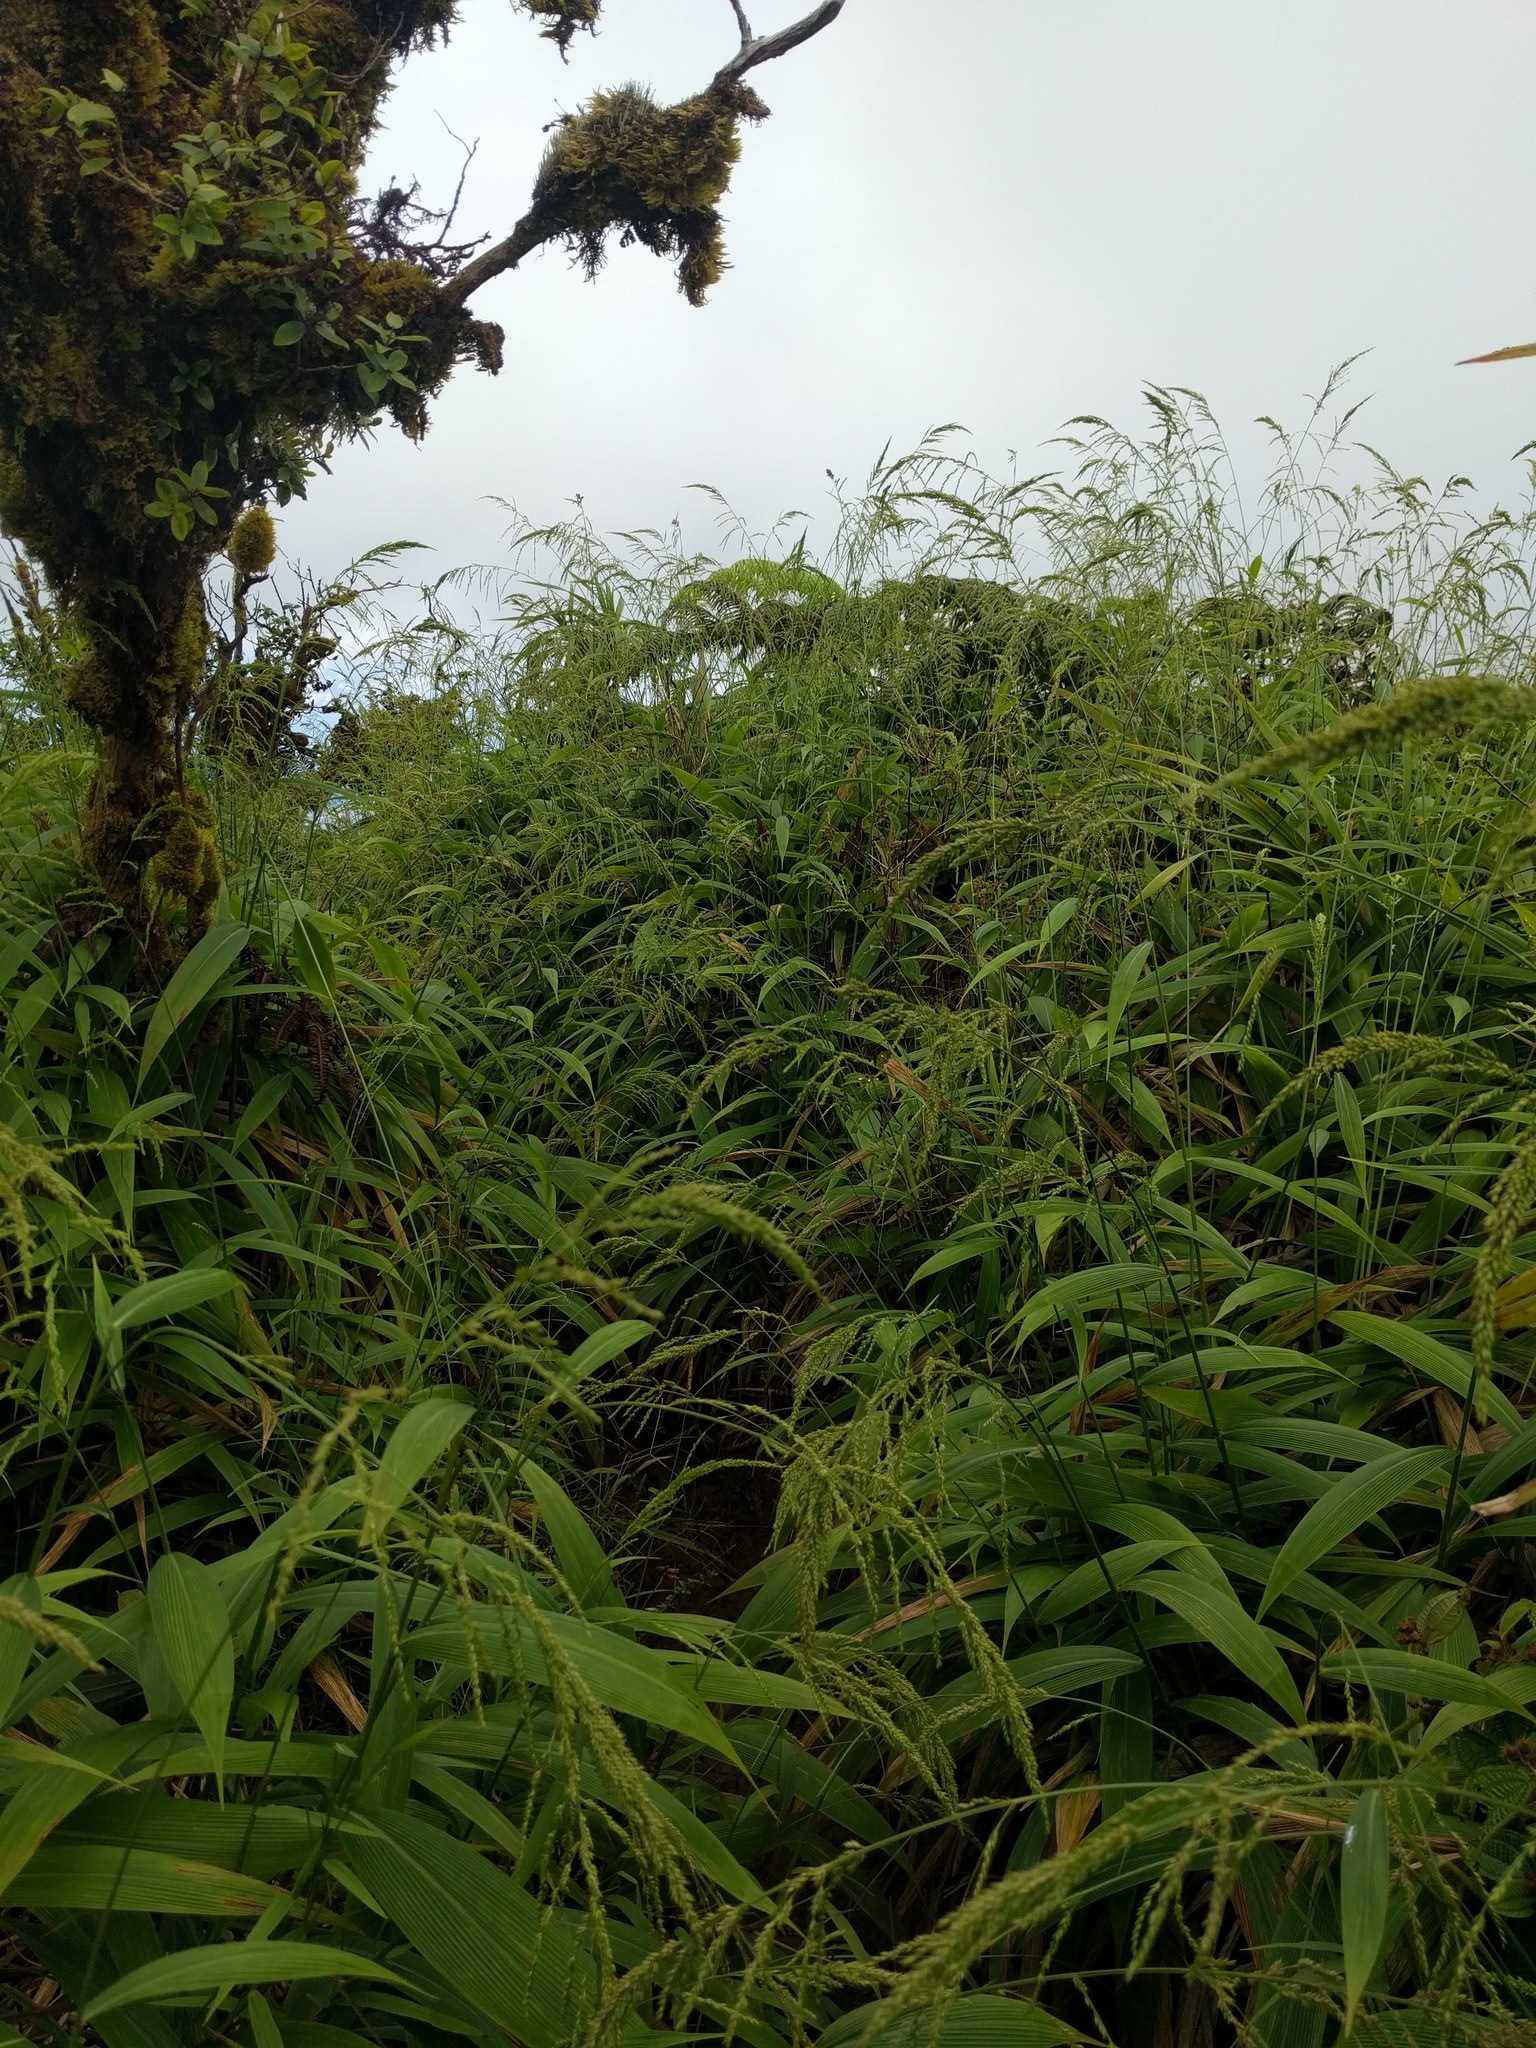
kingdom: Plantae
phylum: Tracheophyta
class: Liliopsida
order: Poales
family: Poaceae
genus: Setaria
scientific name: Setaria palmifolia
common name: Broadleaved bristlegrass
